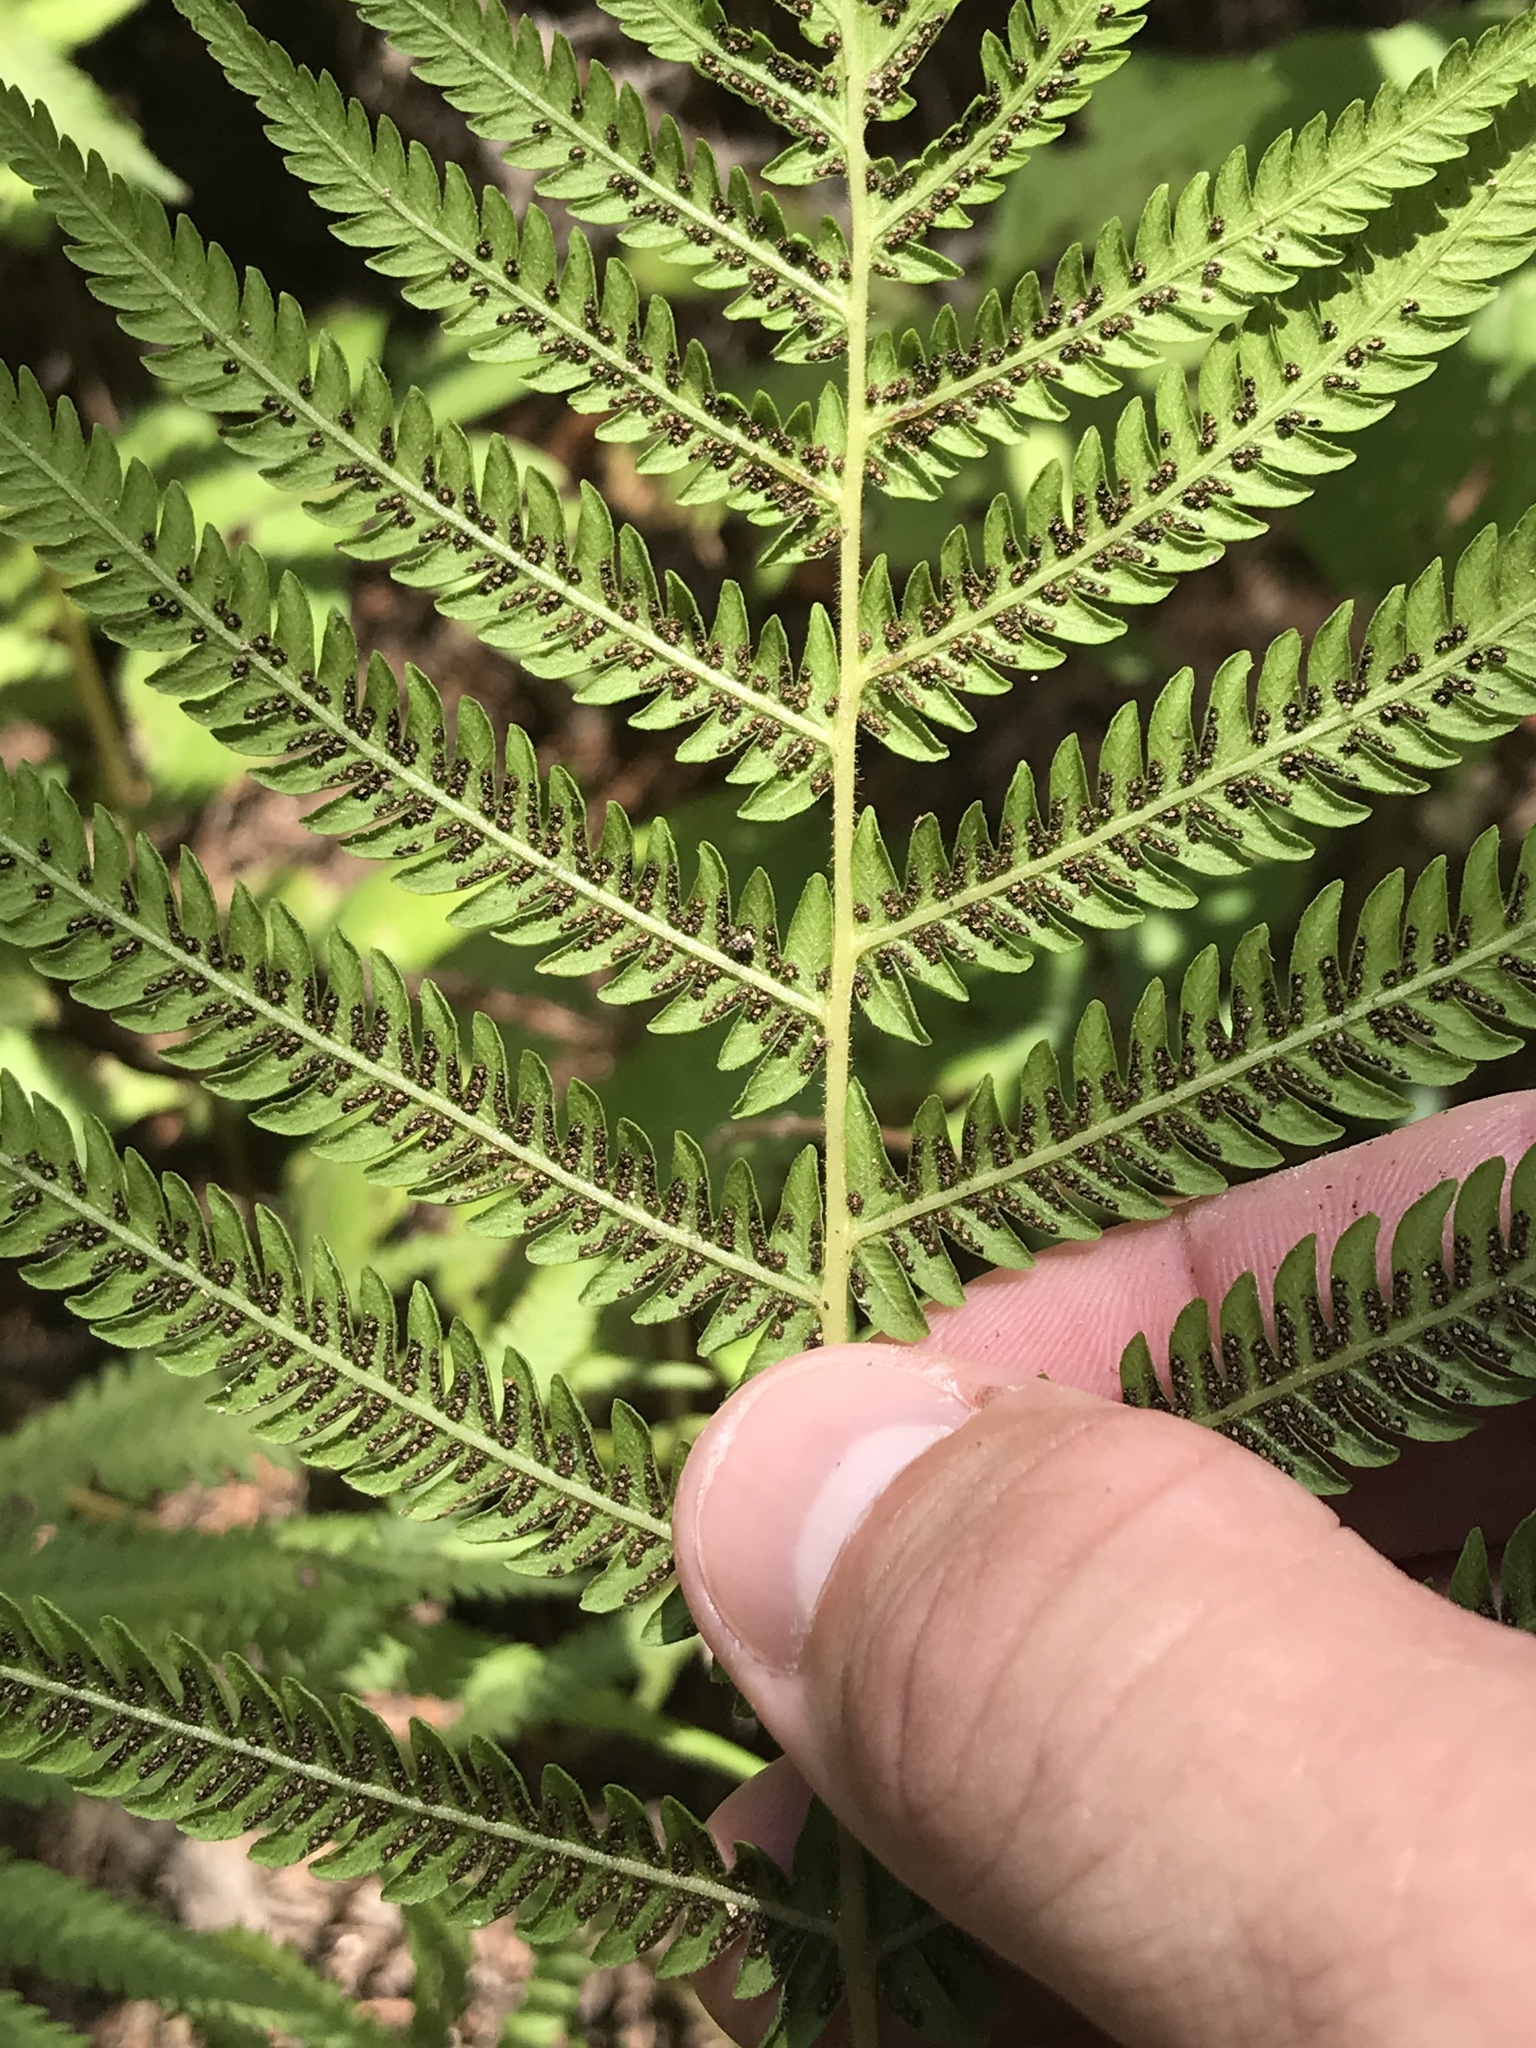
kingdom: Plantae
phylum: Tracheophyta
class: Polypodiopsida
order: Polypodiales
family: Thelypteridaceae
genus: Pelazoneuron
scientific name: Pelazoneuron ovatum
